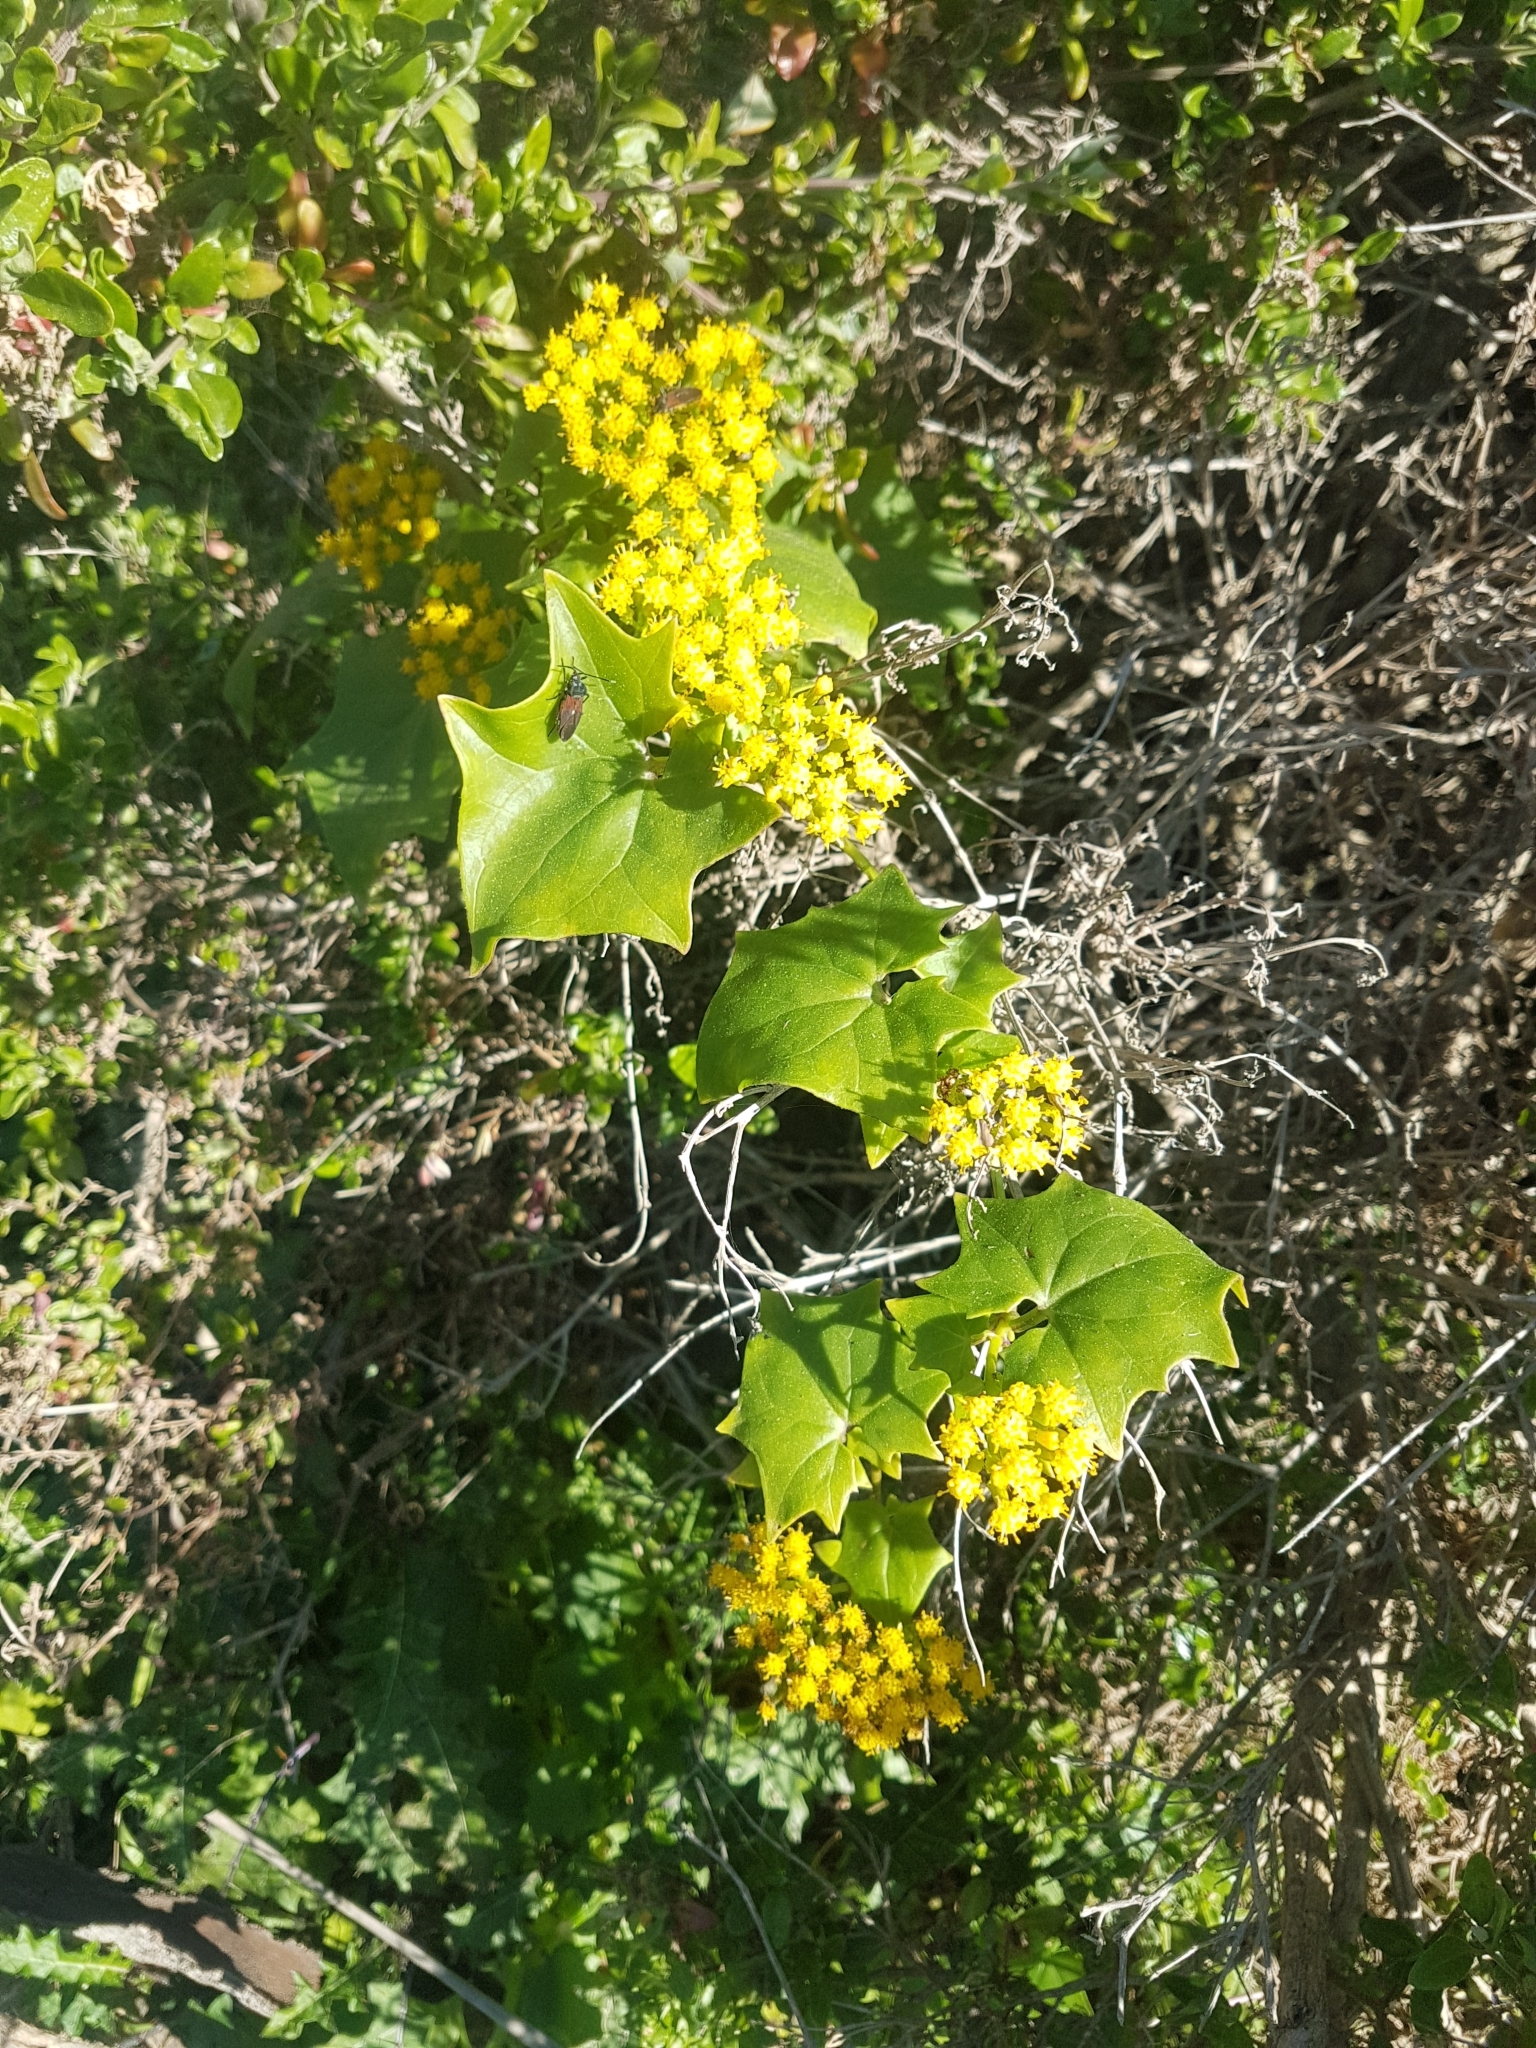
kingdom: Plantae
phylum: Tracheophyta
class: Magnoliopsida
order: Asterales
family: Asteraceae
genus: Delairea
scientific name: Delairea odorata
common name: Cape-ivy
